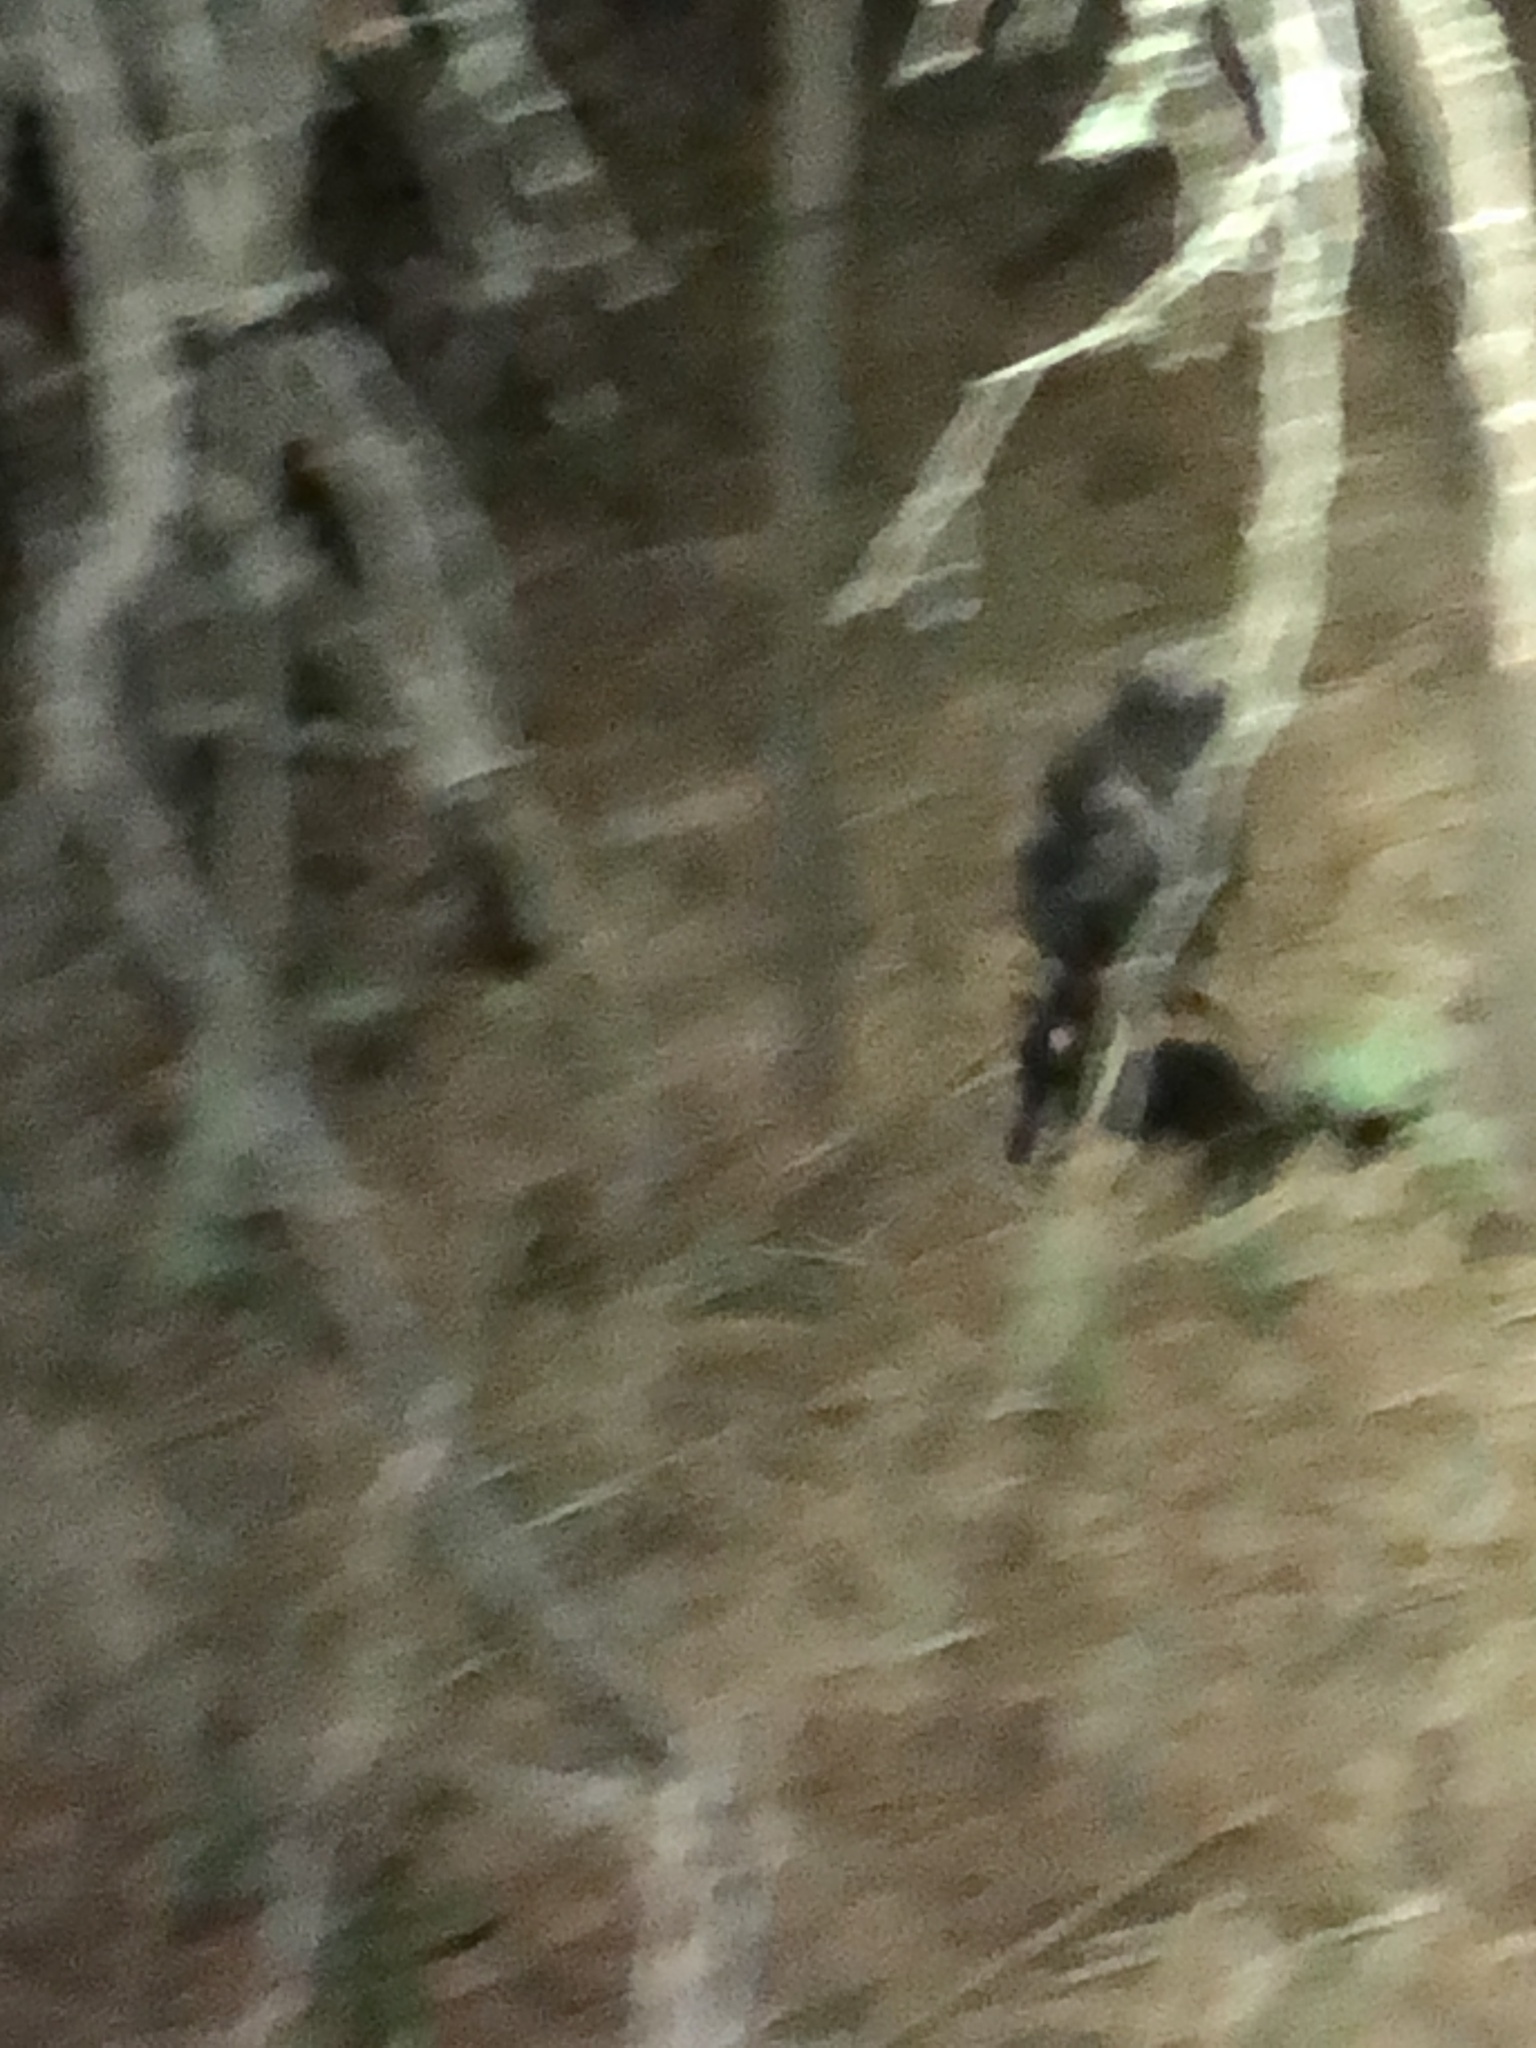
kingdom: Animalia
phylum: Chordata
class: Mammalia
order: Carnivora
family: Mephitidae
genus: Mephitis
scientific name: Mephitis mephitis
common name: Striped skunk
